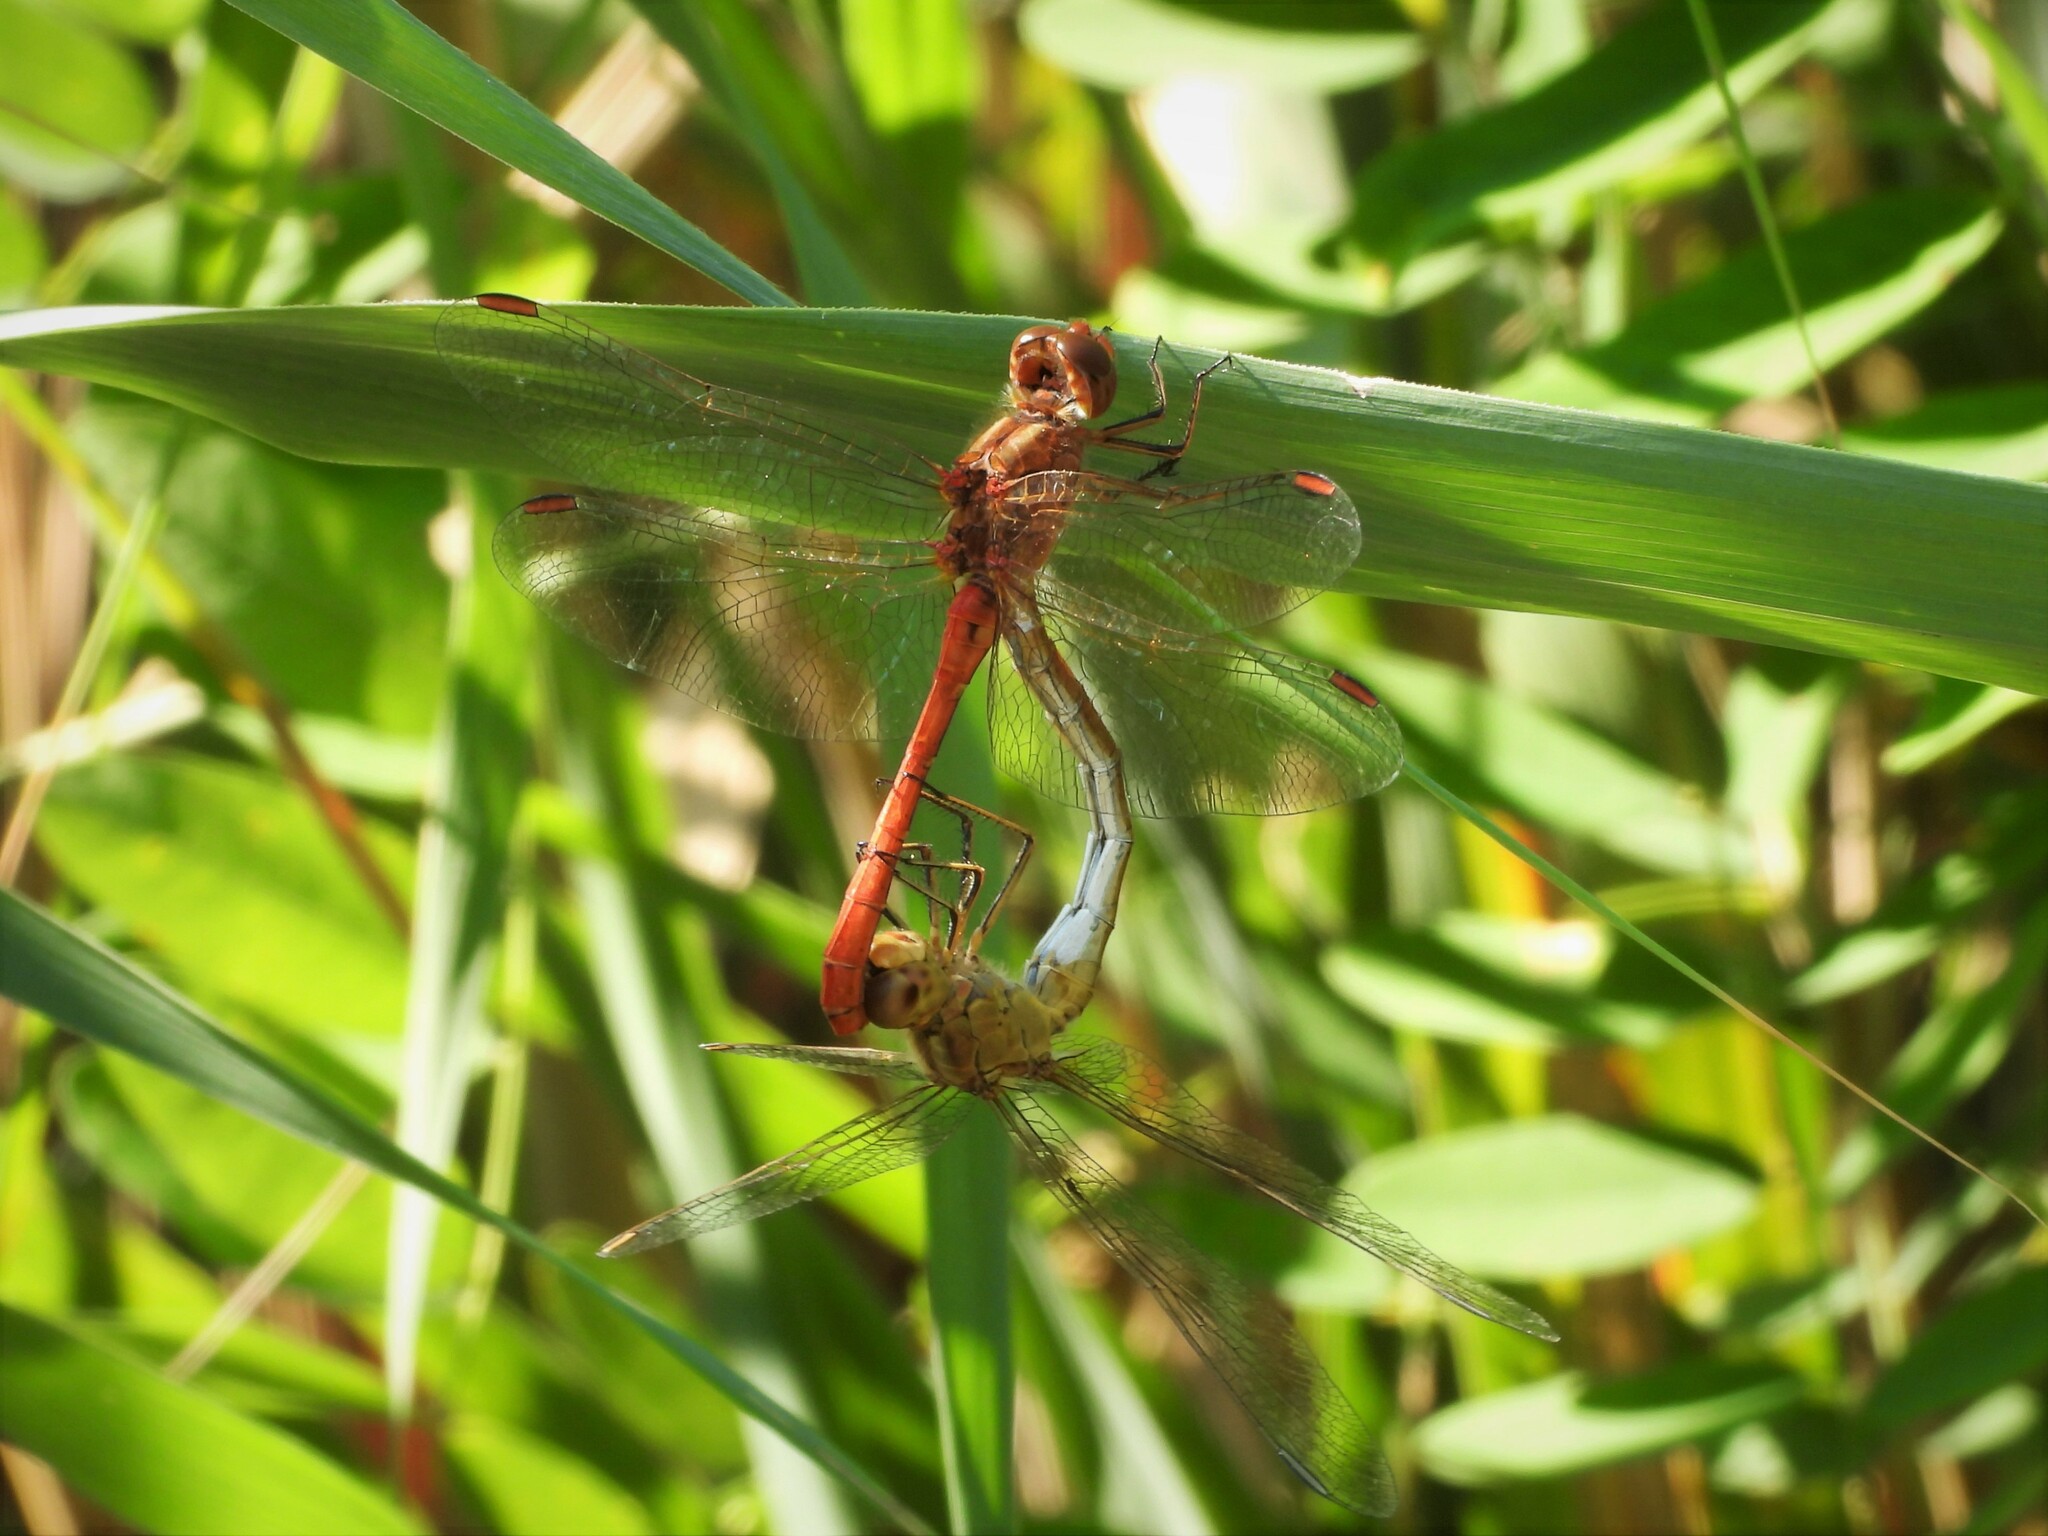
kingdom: Animalia
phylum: Arthropoda
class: Insecta
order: Odonata
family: Libellulidae
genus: Sympetrum
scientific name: Sympetrum meridionale
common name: Southern darter
